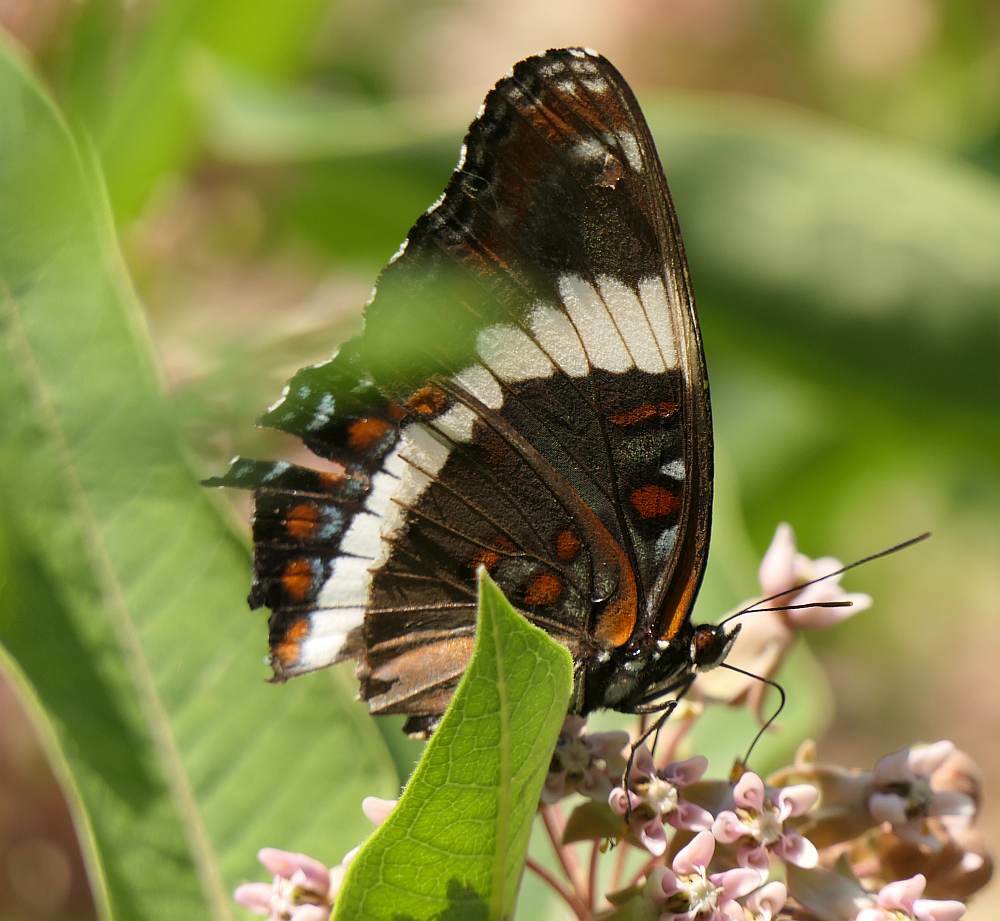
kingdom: Animalia
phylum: Arthropoda
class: Insecta
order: Lepidoptera
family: Nymphalidae
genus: Limenitis
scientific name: Limenitis arthemis
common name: Red-spotted admiral
